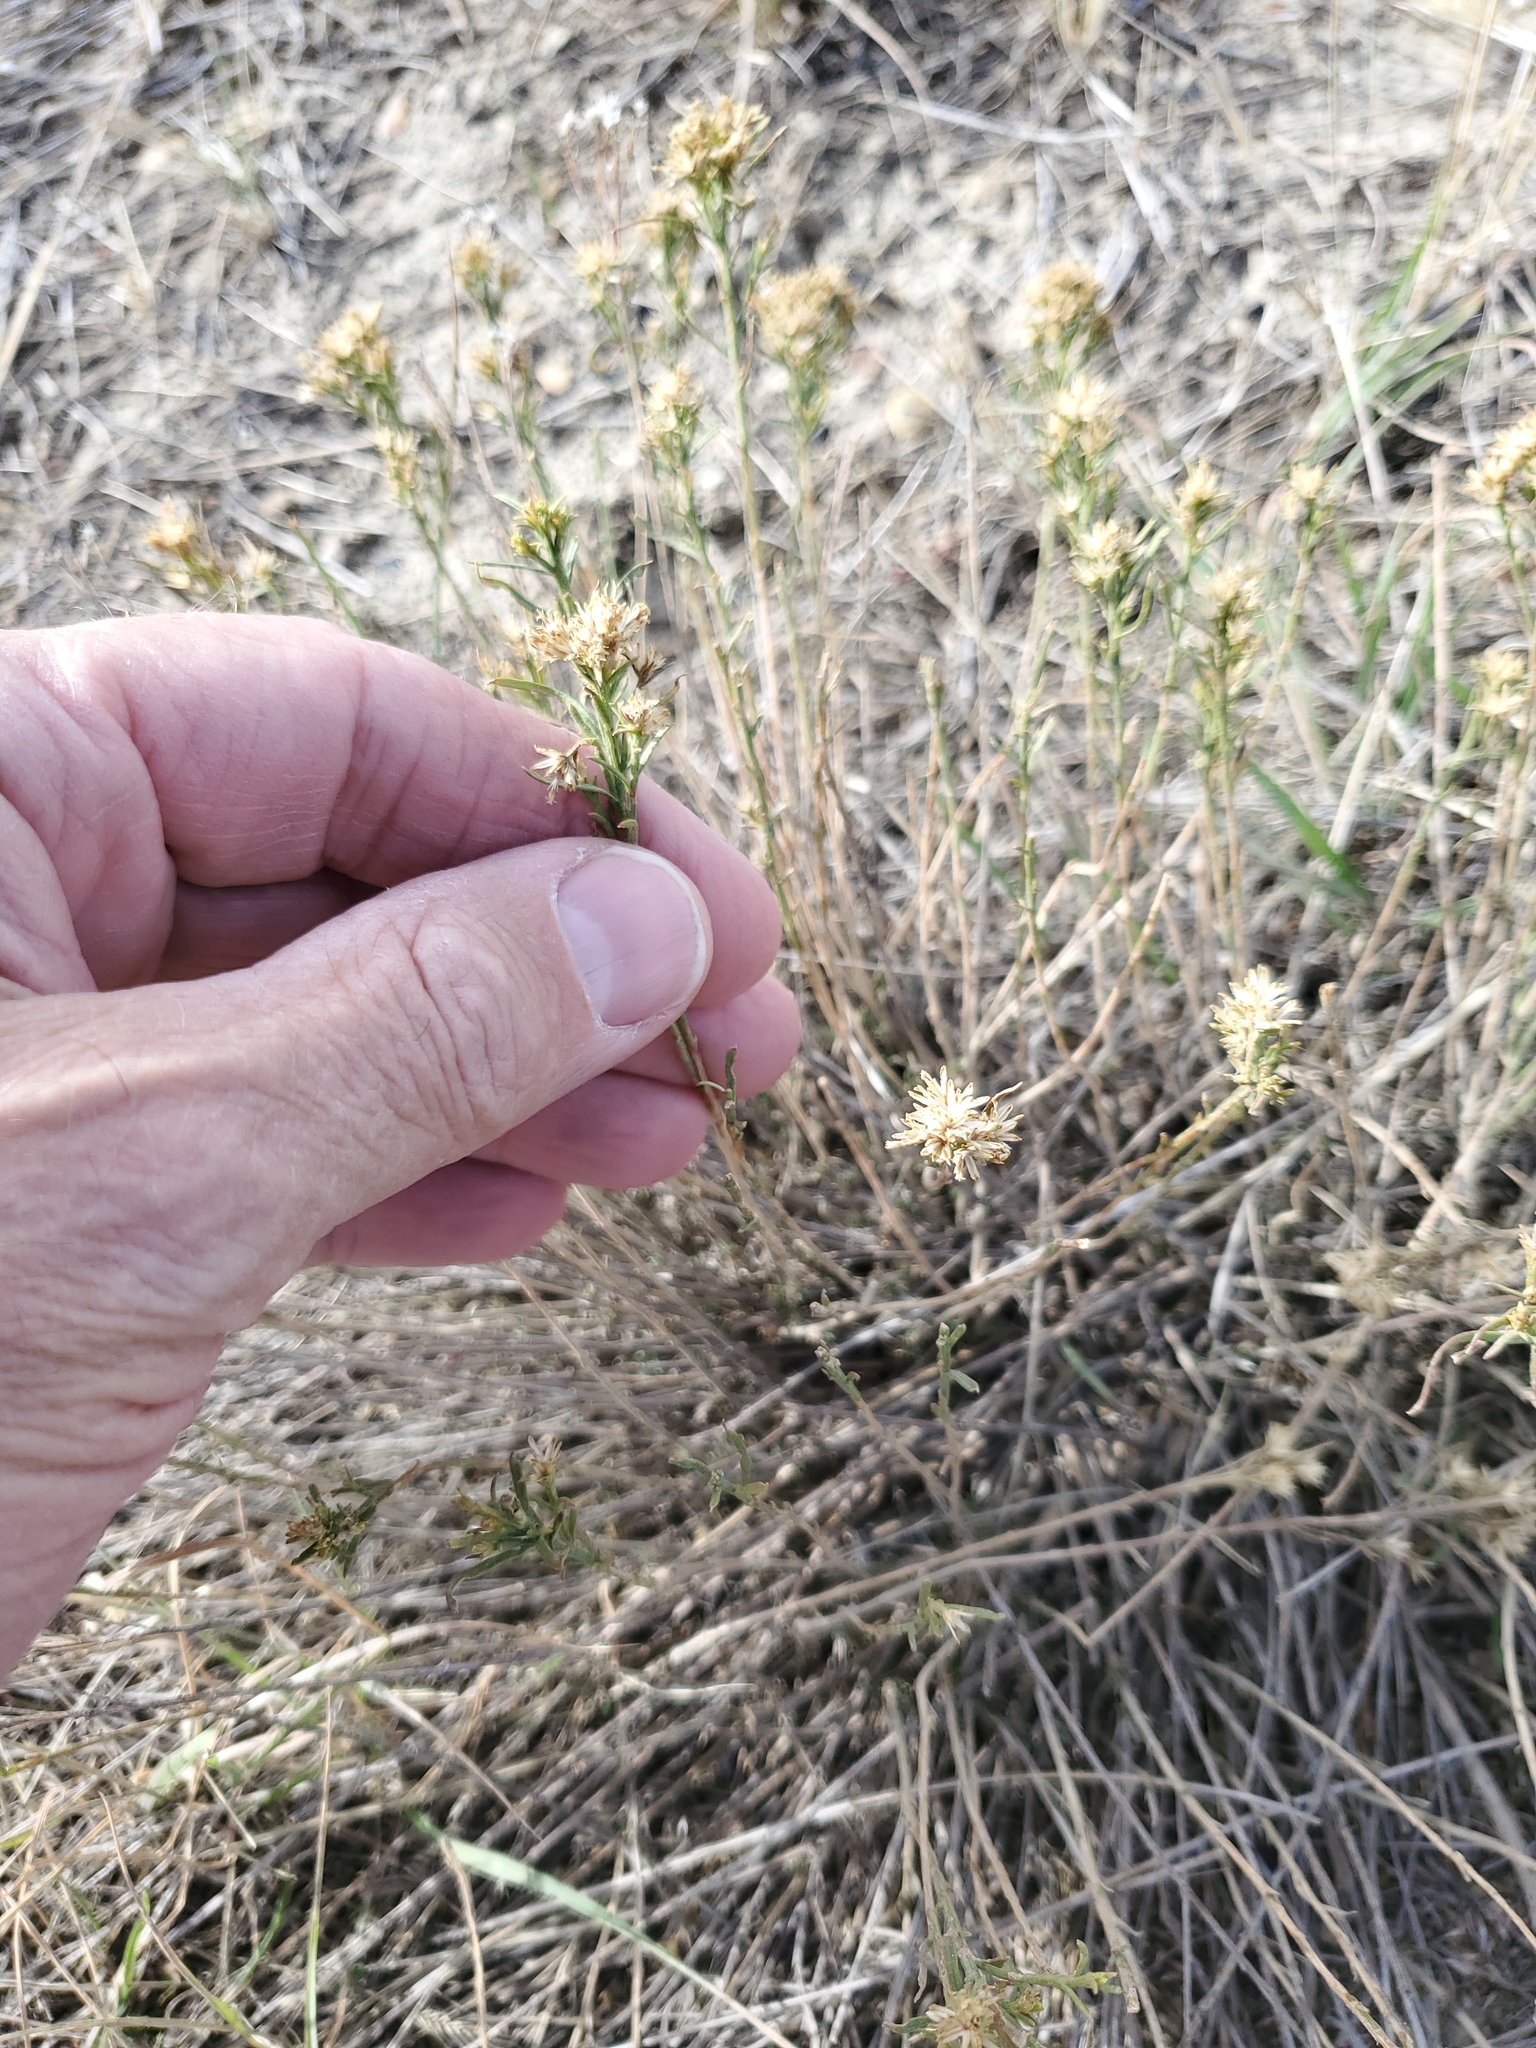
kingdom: Plantae
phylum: Tracheophyta
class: Magnoliopsida
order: Asterales
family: Asteraceae
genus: Gutierrezia
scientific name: Gutierrezia sarothrae
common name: Broom snakeweed
